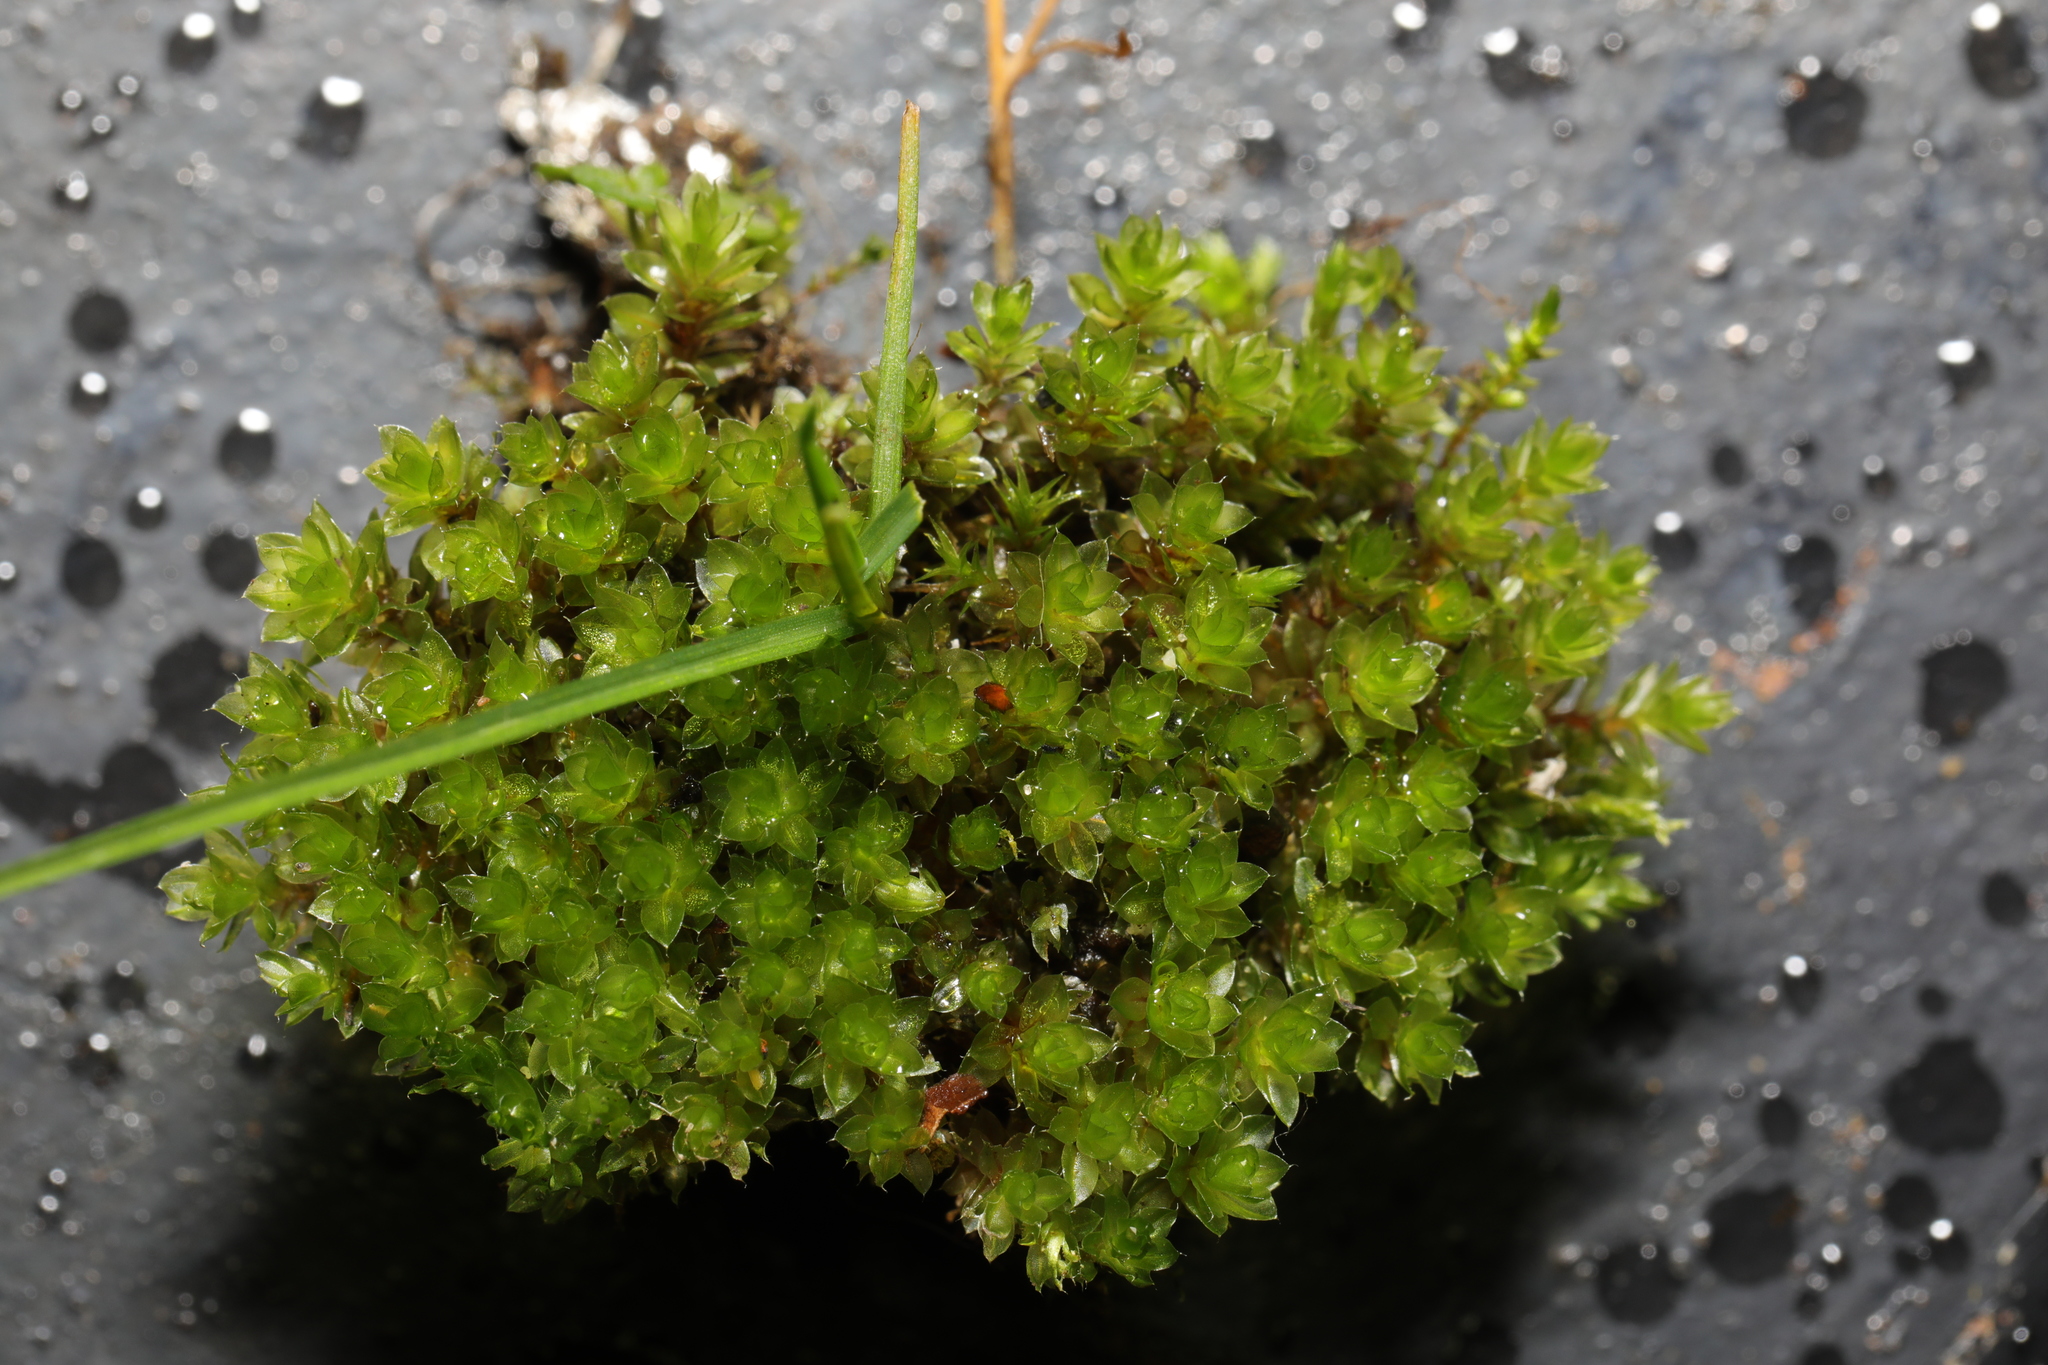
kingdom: Plantae
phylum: Bryophyta
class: Bryopsida
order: Bryales
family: Bryaceae
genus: Rosulabryum
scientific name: Rosulabryum capillare
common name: Capillary thread-moss
